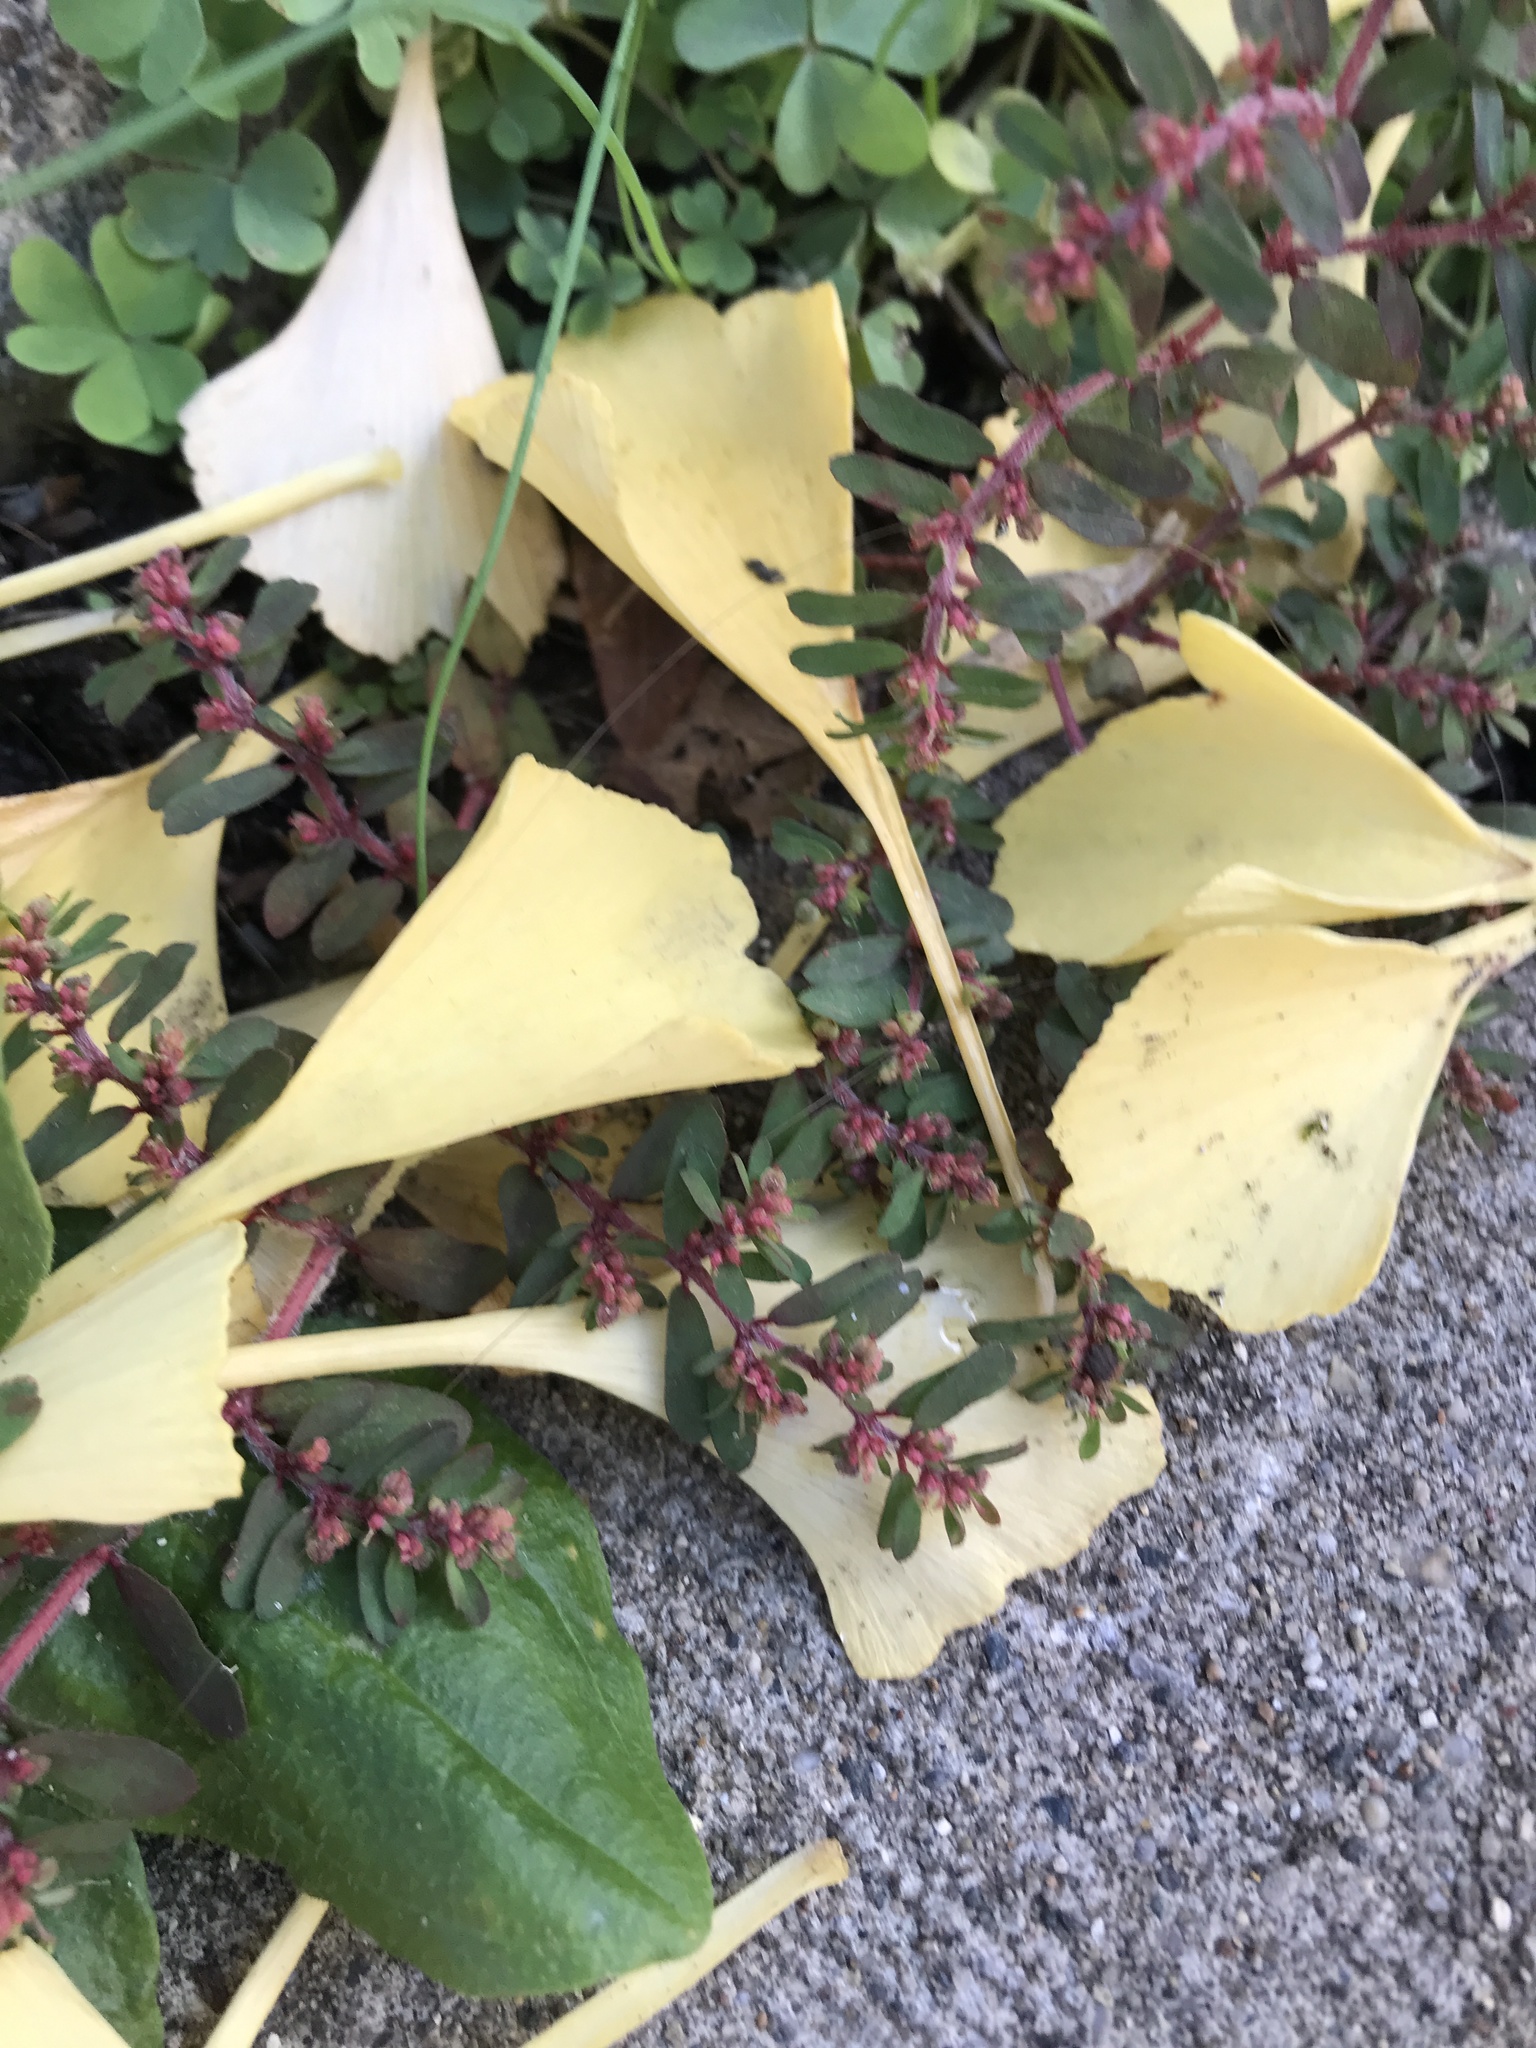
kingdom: Plantae
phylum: Tracheophyta
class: Magnoliopsida
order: Malpighiales
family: Euphorbiaceae
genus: Euphorbia
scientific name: Euphorbia maculata
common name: Spotted spurge
